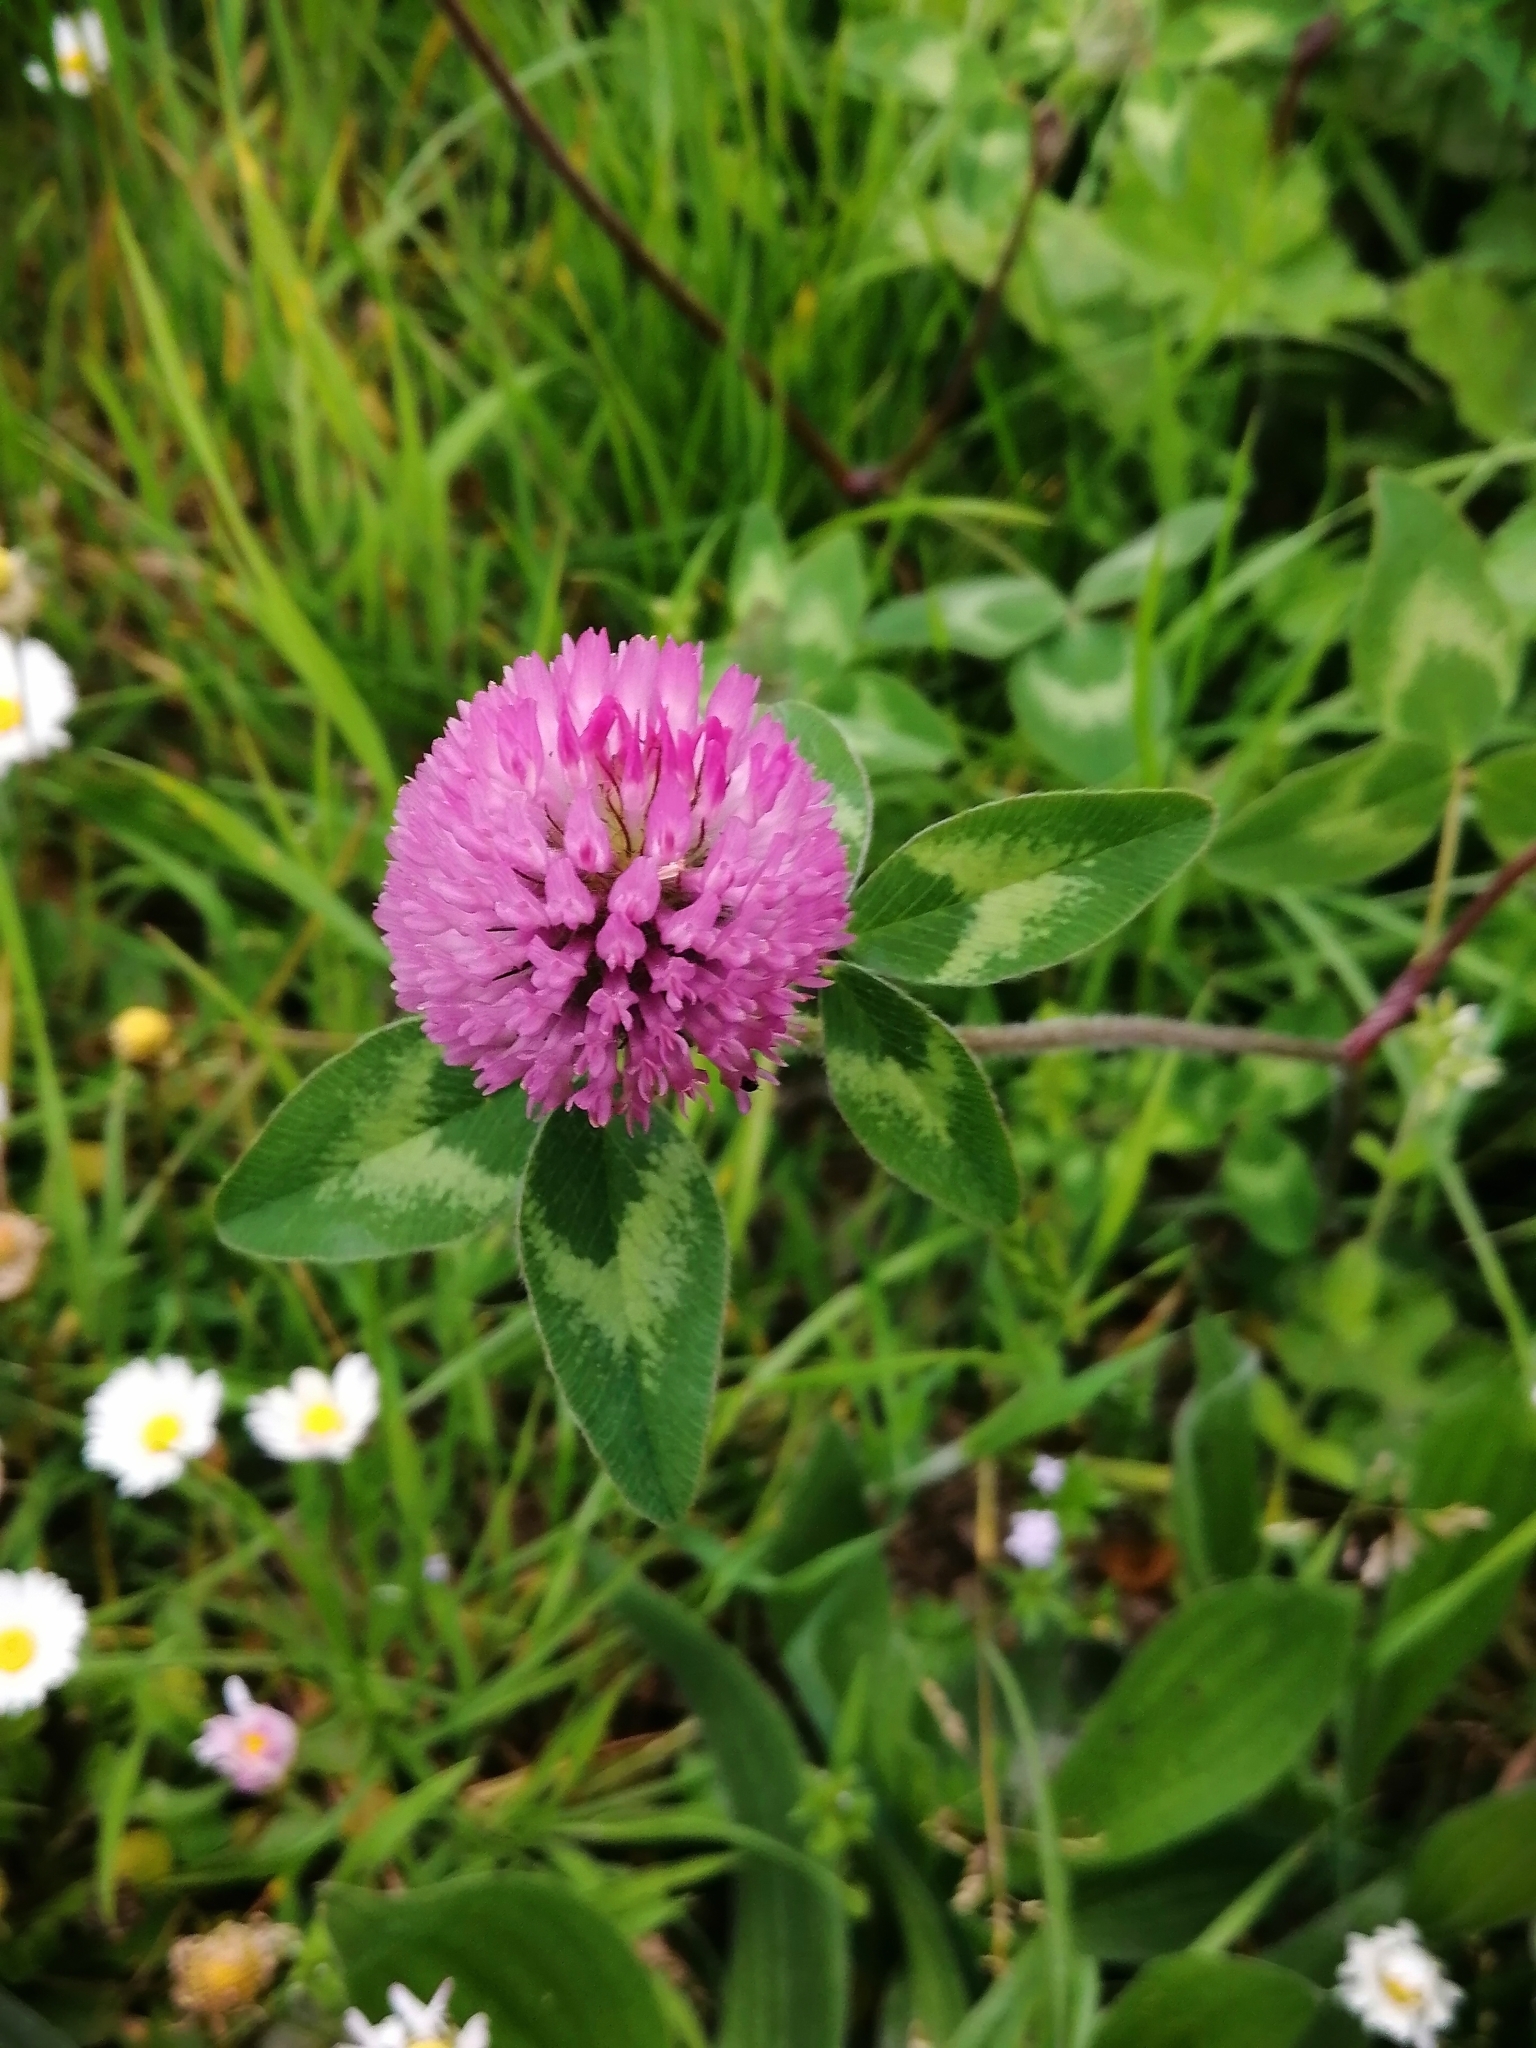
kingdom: Plantae
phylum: Tracheophyta
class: Magnoliopsida
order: Fabales
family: Fabaceae
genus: Trifolium
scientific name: Trifolium pratense
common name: Red clover
